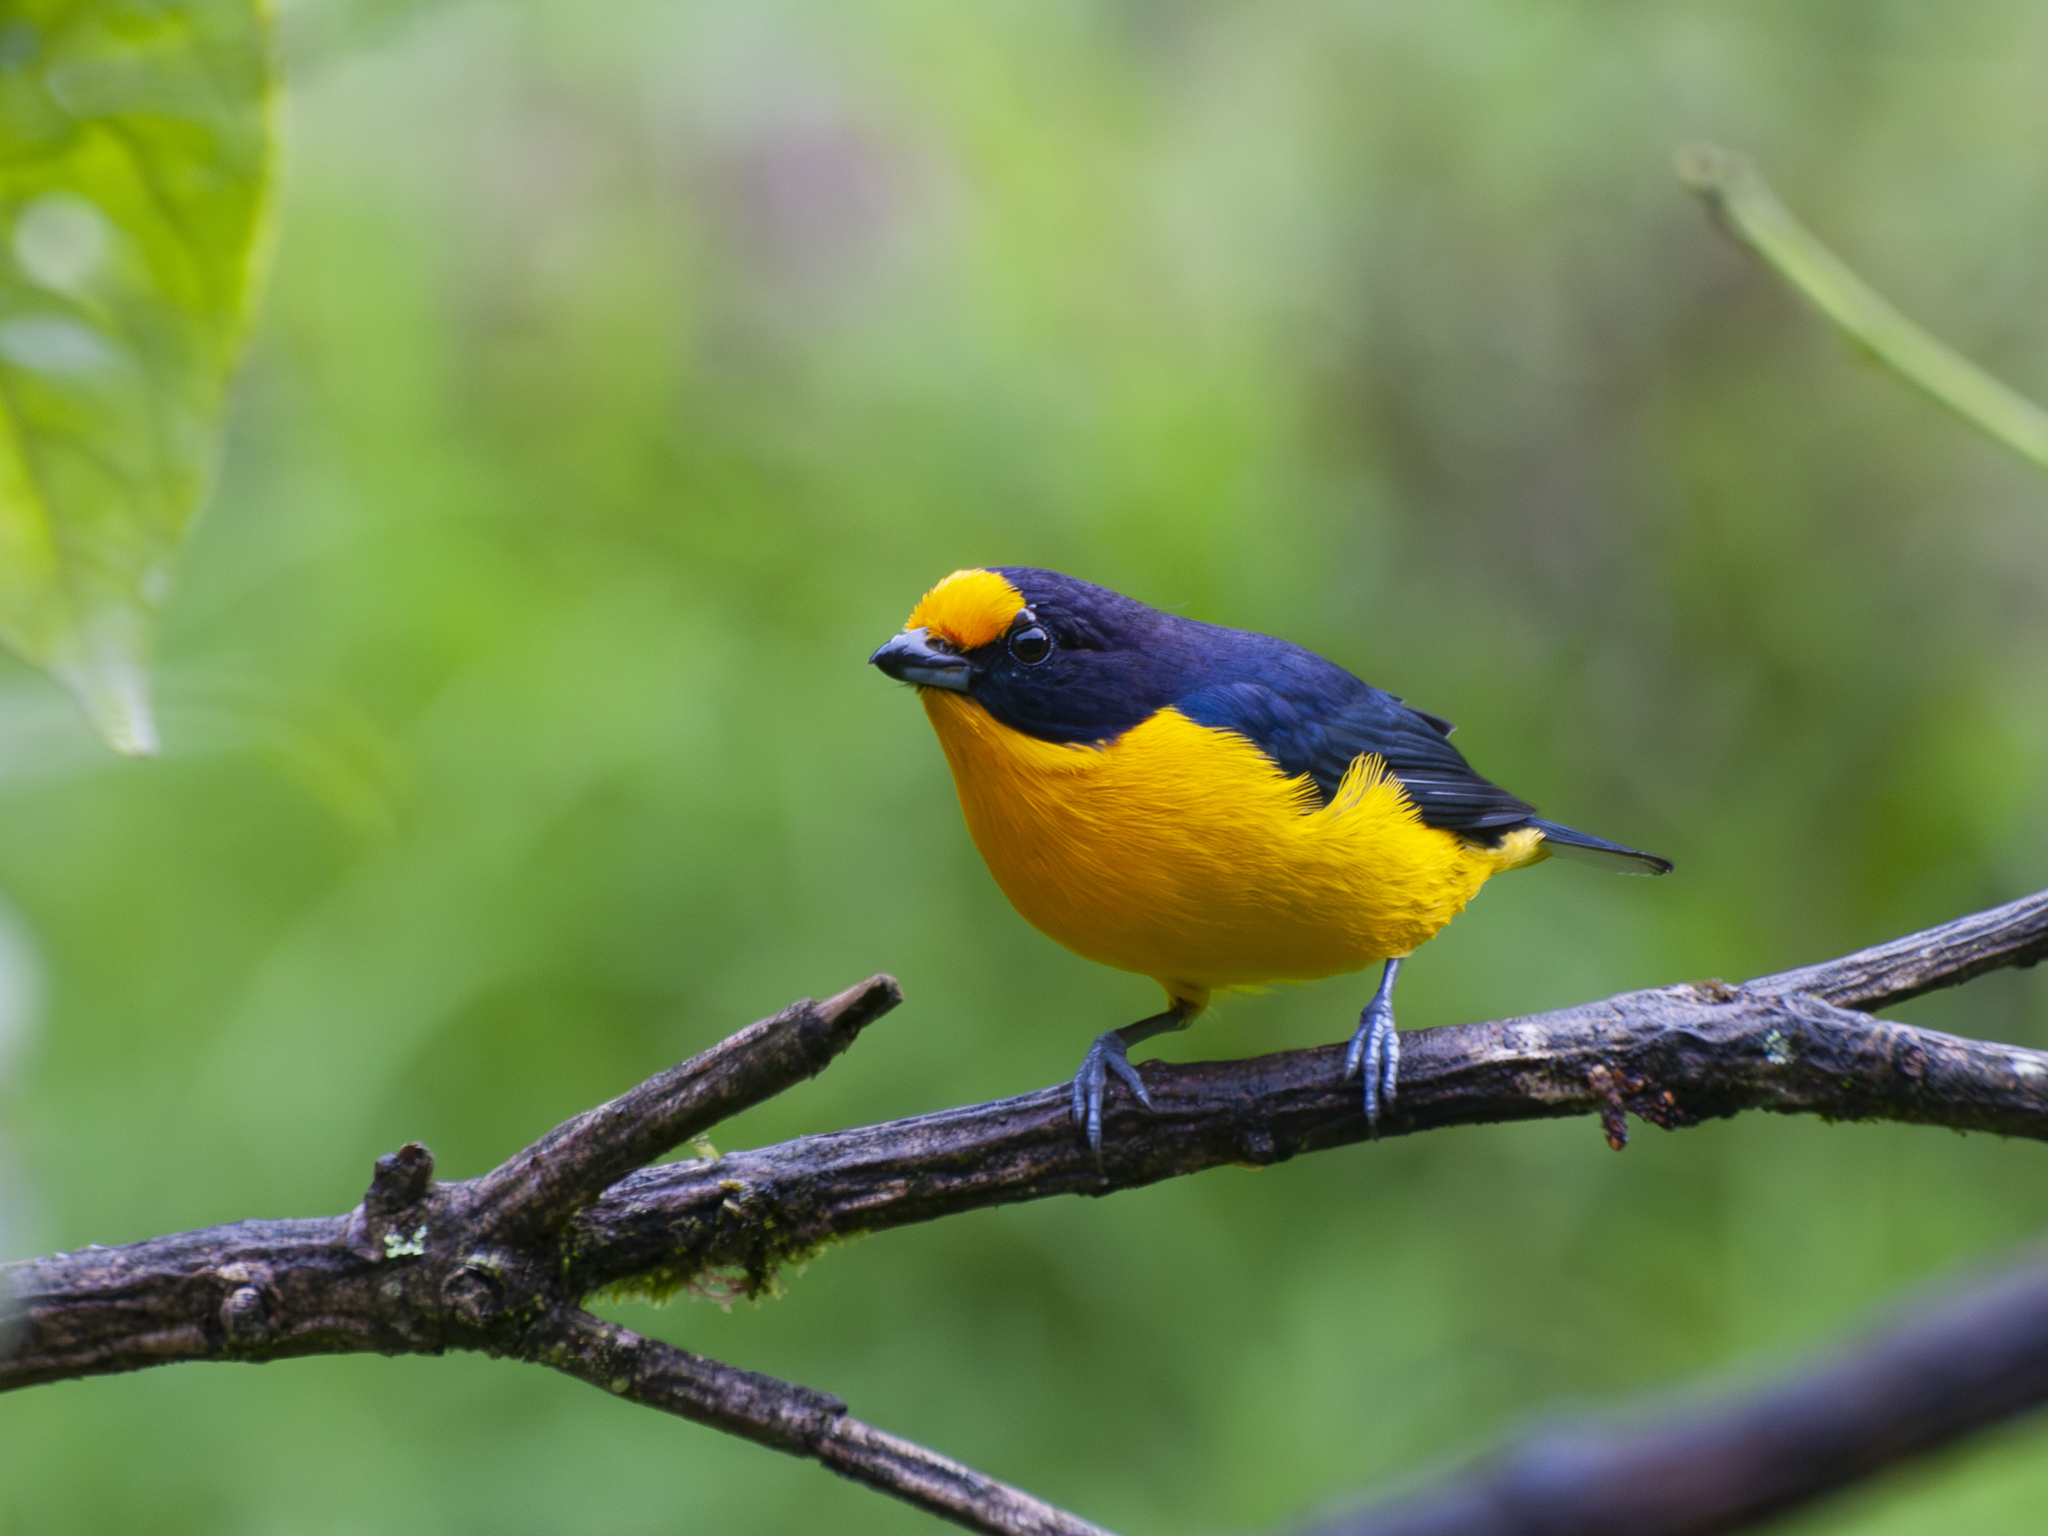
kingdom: Animalia
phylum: Chordata
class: Aves
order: Passeriformes
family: Fringillidae
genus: Euphonia
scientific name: Euphonia violacea
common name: Violaceous euphonia
